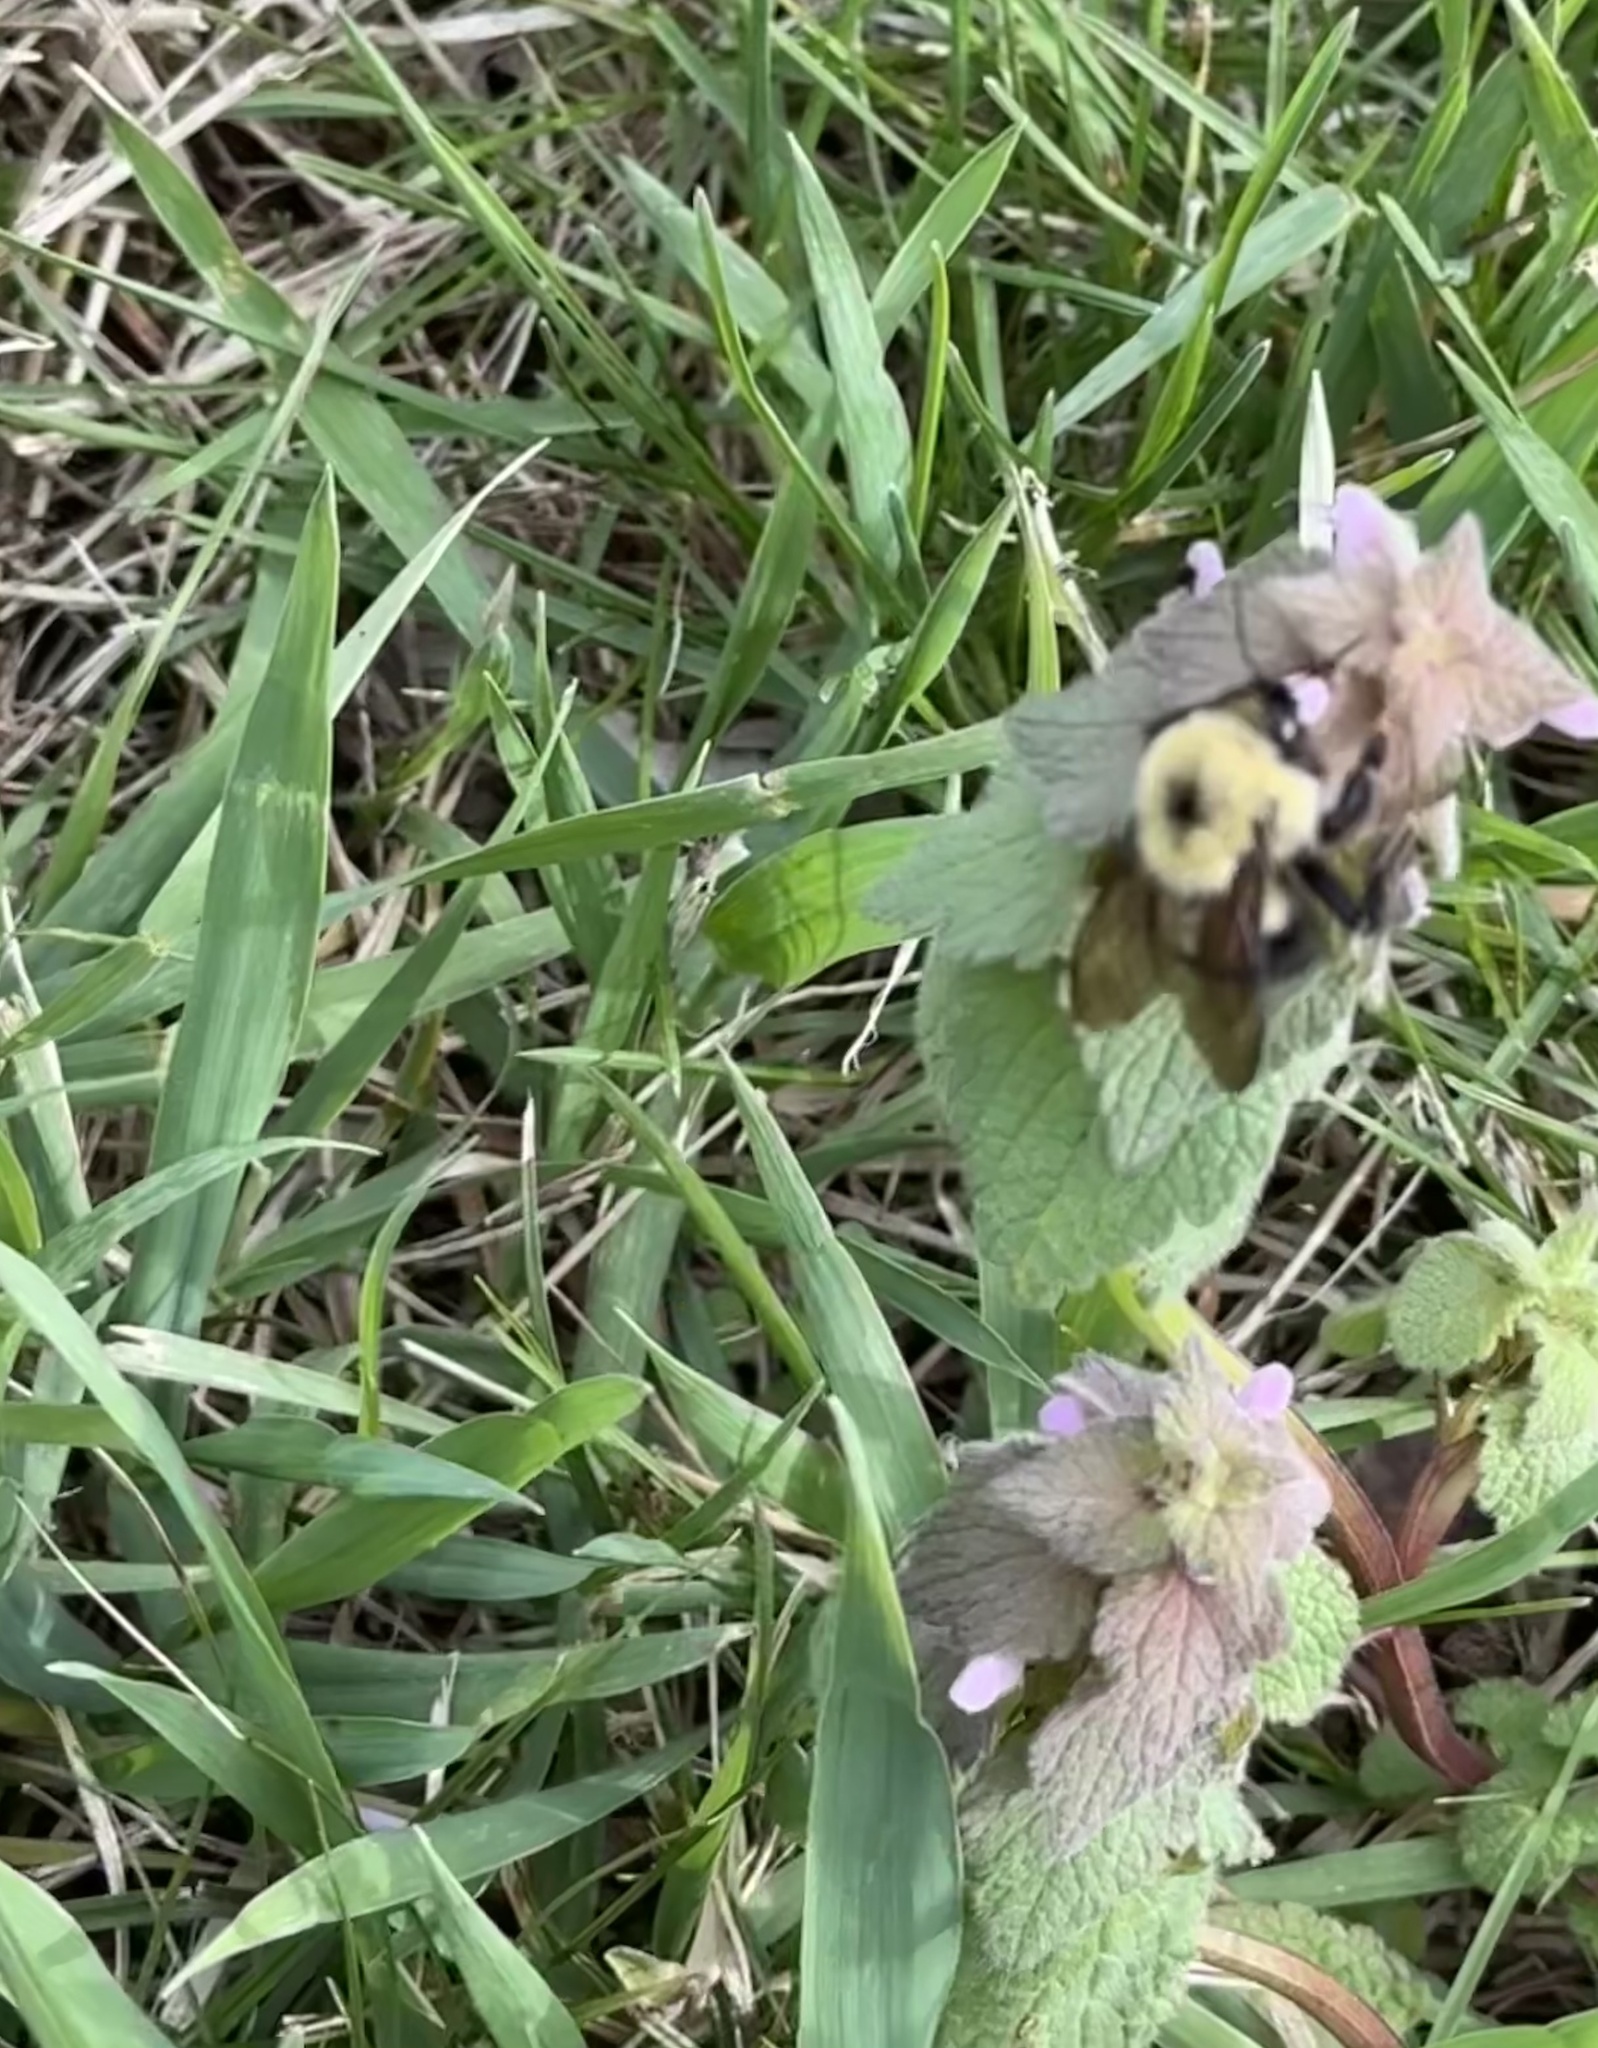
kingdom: Animalia
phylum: Arthropoda
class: Insecta
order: Hymenoptera
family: Apidae
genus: Bombus
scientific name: Bombus bimaculatus
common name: Two-spotted bumble bee
